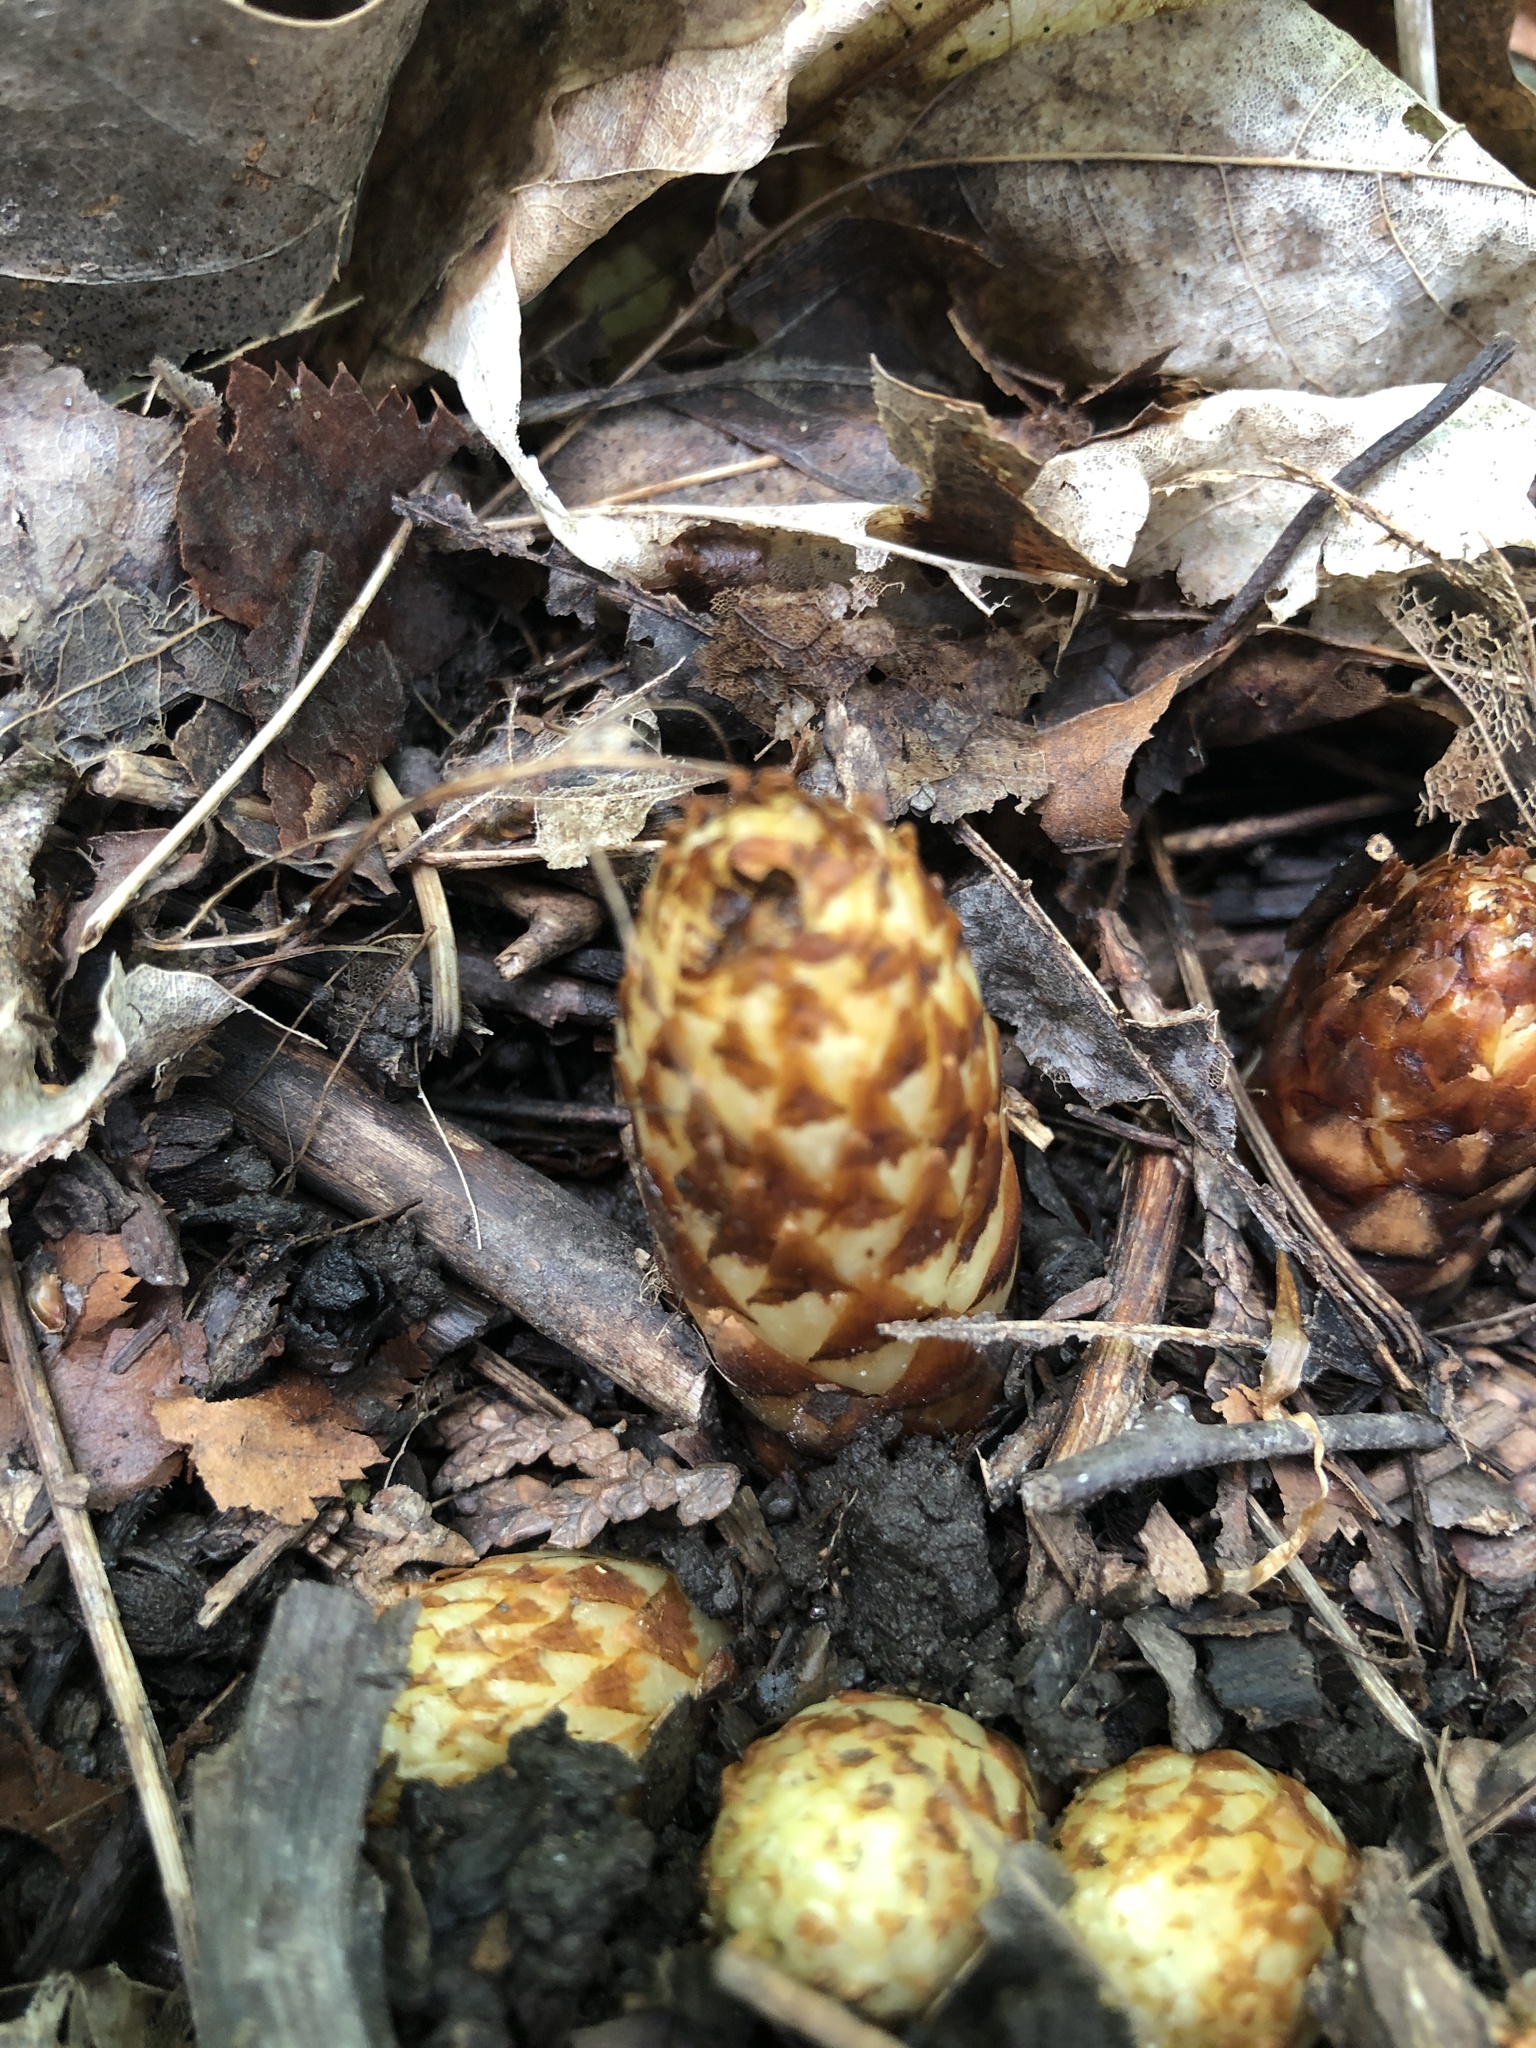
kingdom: Plantae
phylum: Tracheophyta
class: Magnoliopsida
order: Lamiales
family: Orobanchaceae
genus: Conopholis
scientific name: Conopholis americana
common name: American cancer-root
